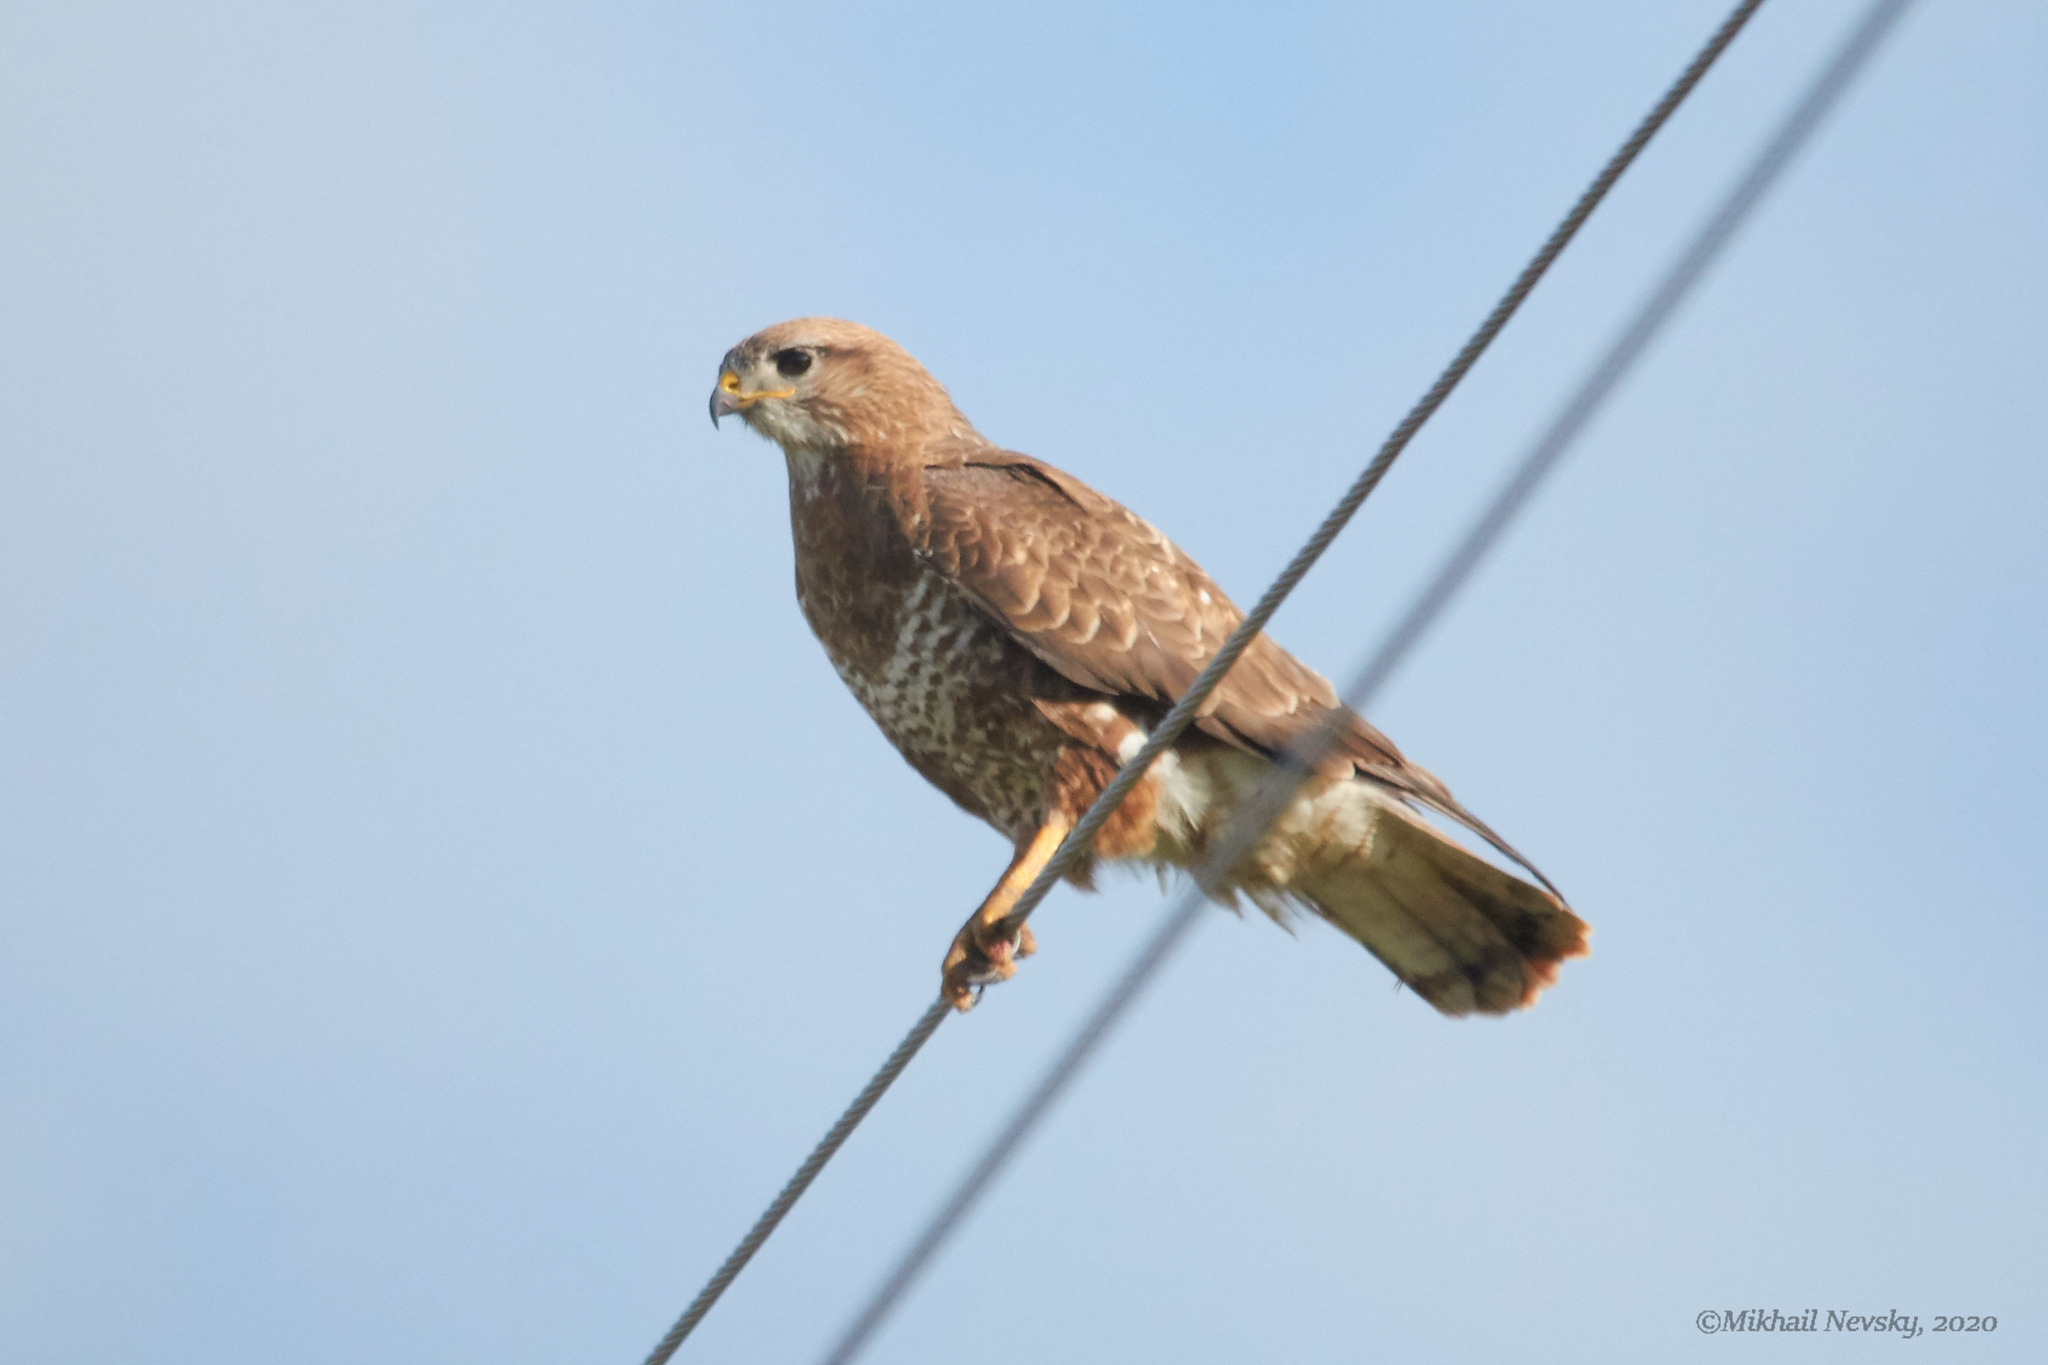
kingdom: Animalia
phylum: Chordata
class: Aves
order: Accipitriformes
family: Accipitridae
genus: Buteo
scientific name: Buteo buteo
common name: Common buzzard
